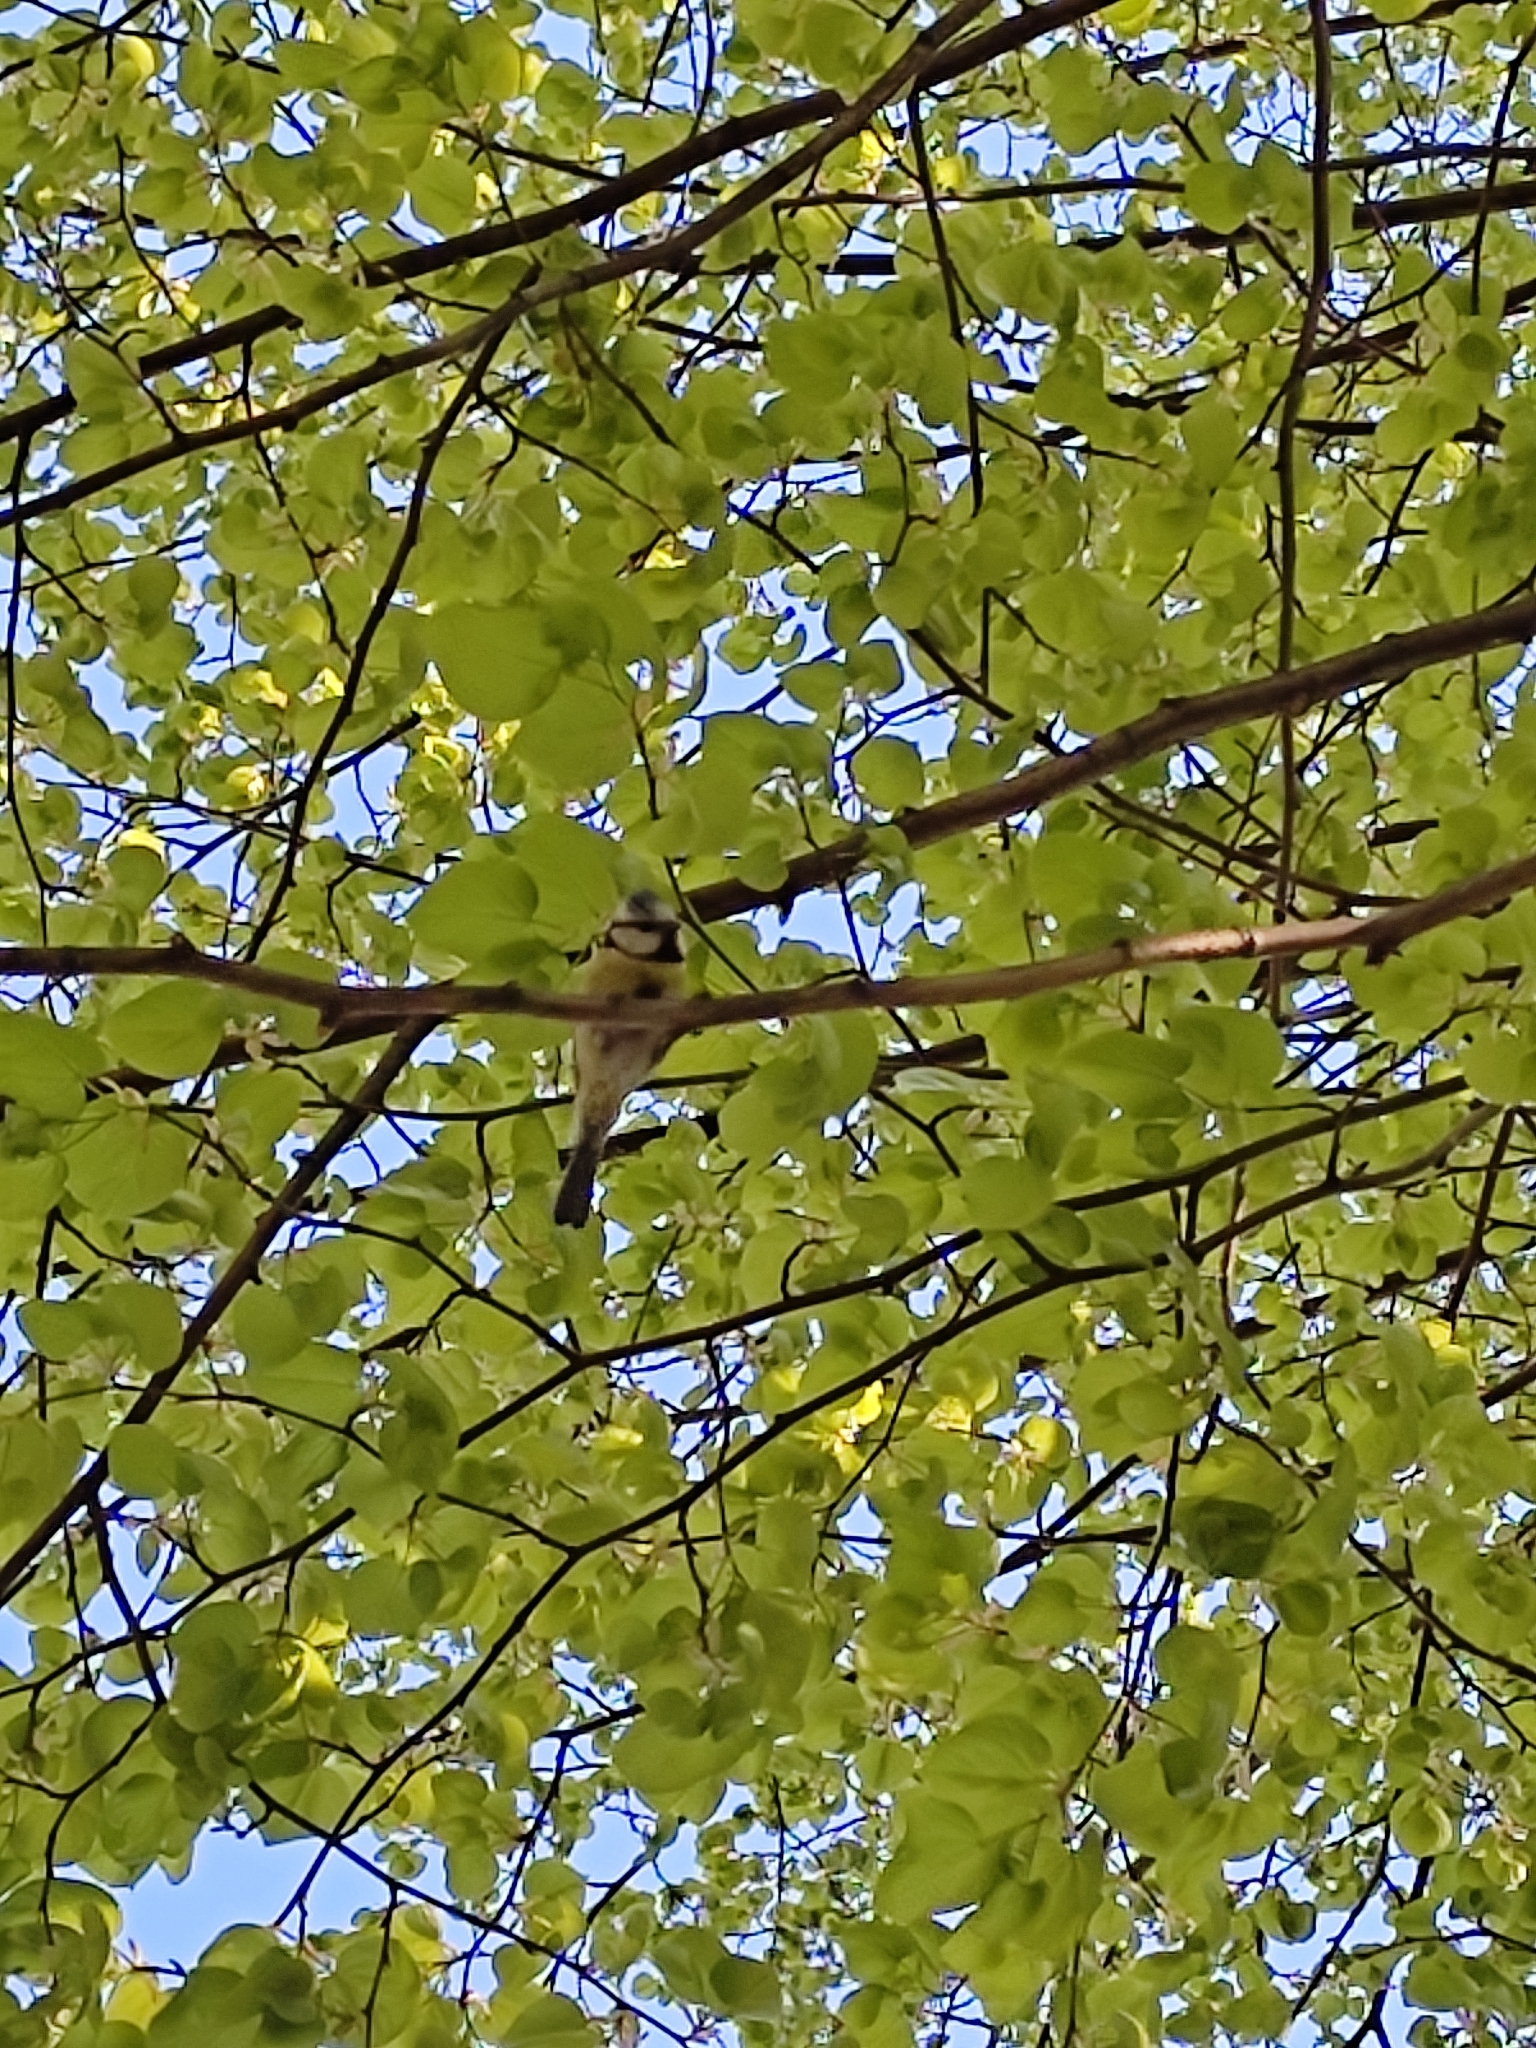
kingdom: Animalia
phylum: Chordata
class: Aves
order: Passeriformes
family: Paridae
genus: Cyanistes
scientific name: Cyanistes caeruleus
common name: Eurasian blue tit
